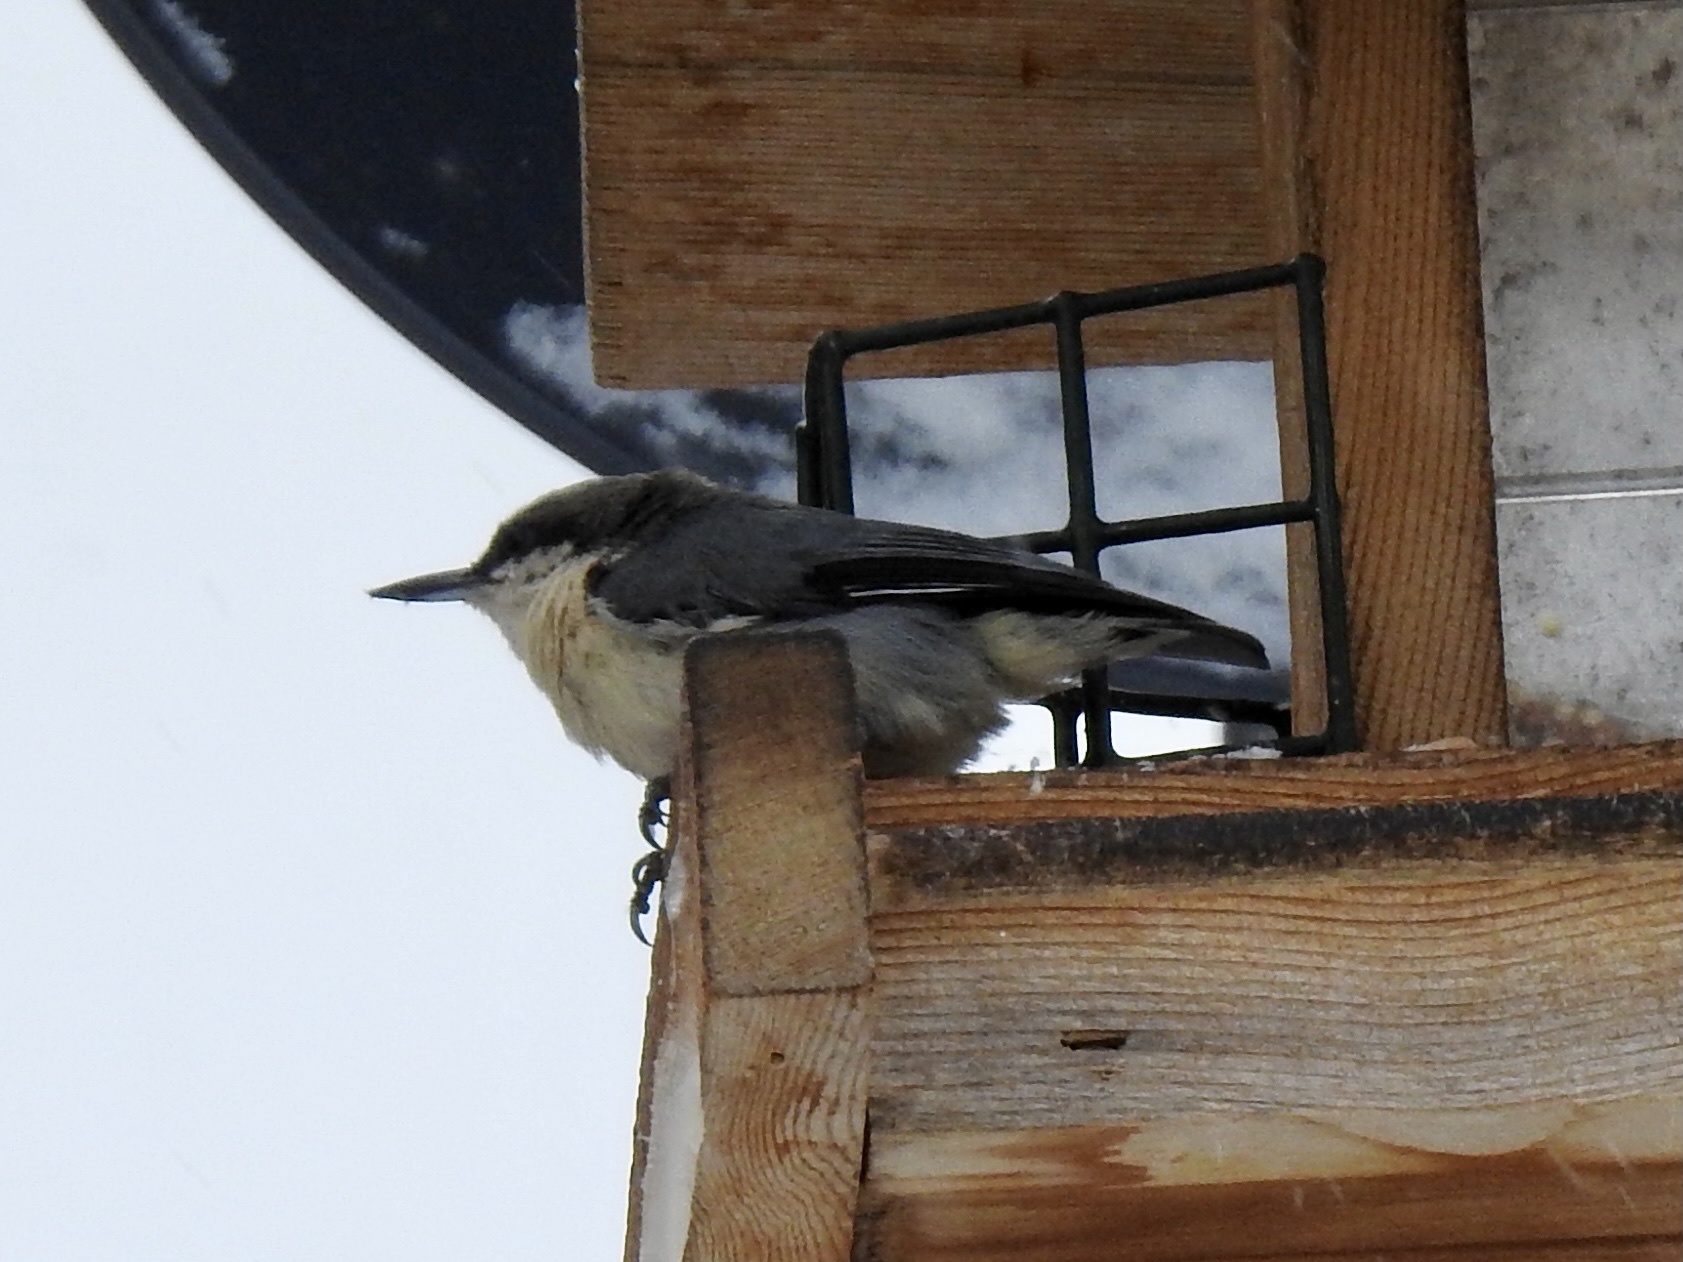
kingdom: Animalia
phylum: Chordata
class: Aves
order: Passeriformes
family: Sittidae
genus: Sitta
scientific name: Sitta pygmaea
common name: Pygmy nuthatch
